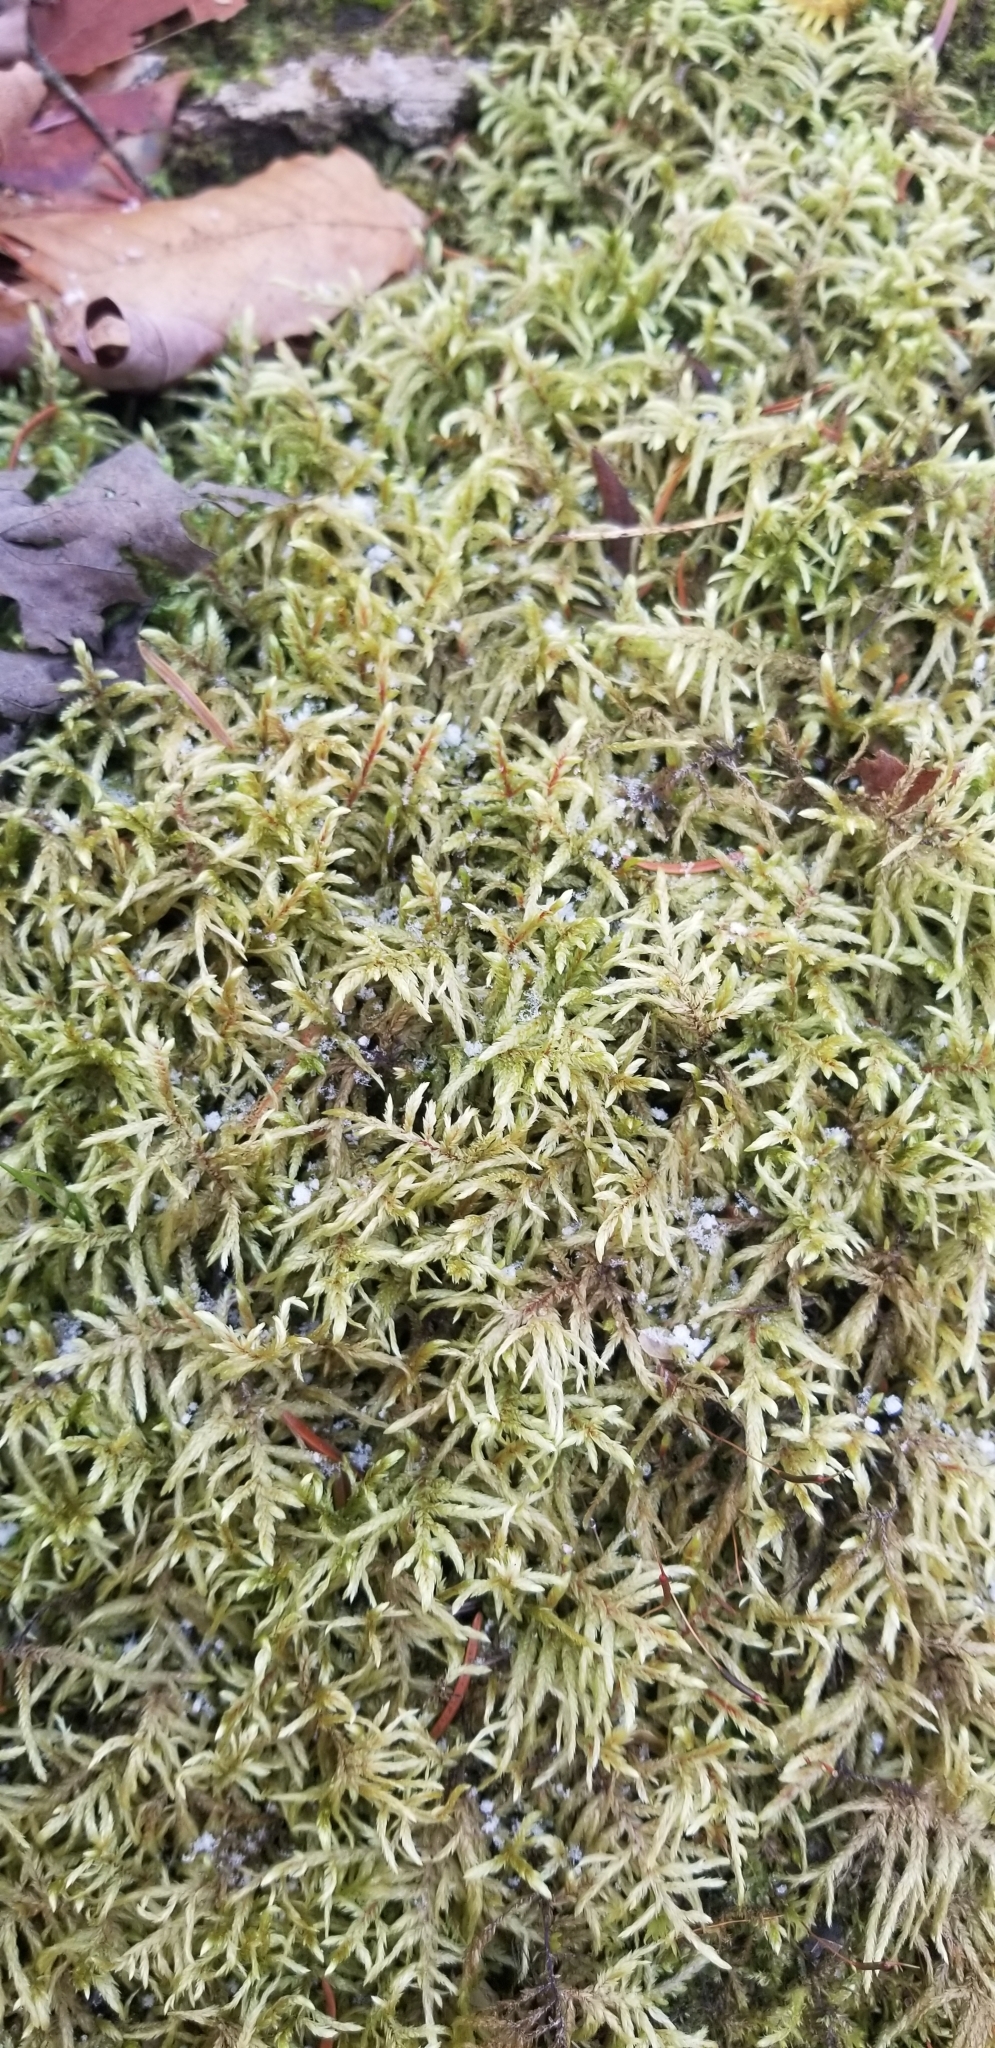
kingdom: Plantae
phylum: Bryophyta
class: Bryopsida
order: Hypnales
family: Hylocomiaceae
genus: Pleurozium
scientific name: Pleurozium schreberi
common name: Red-stemmed feather moss
